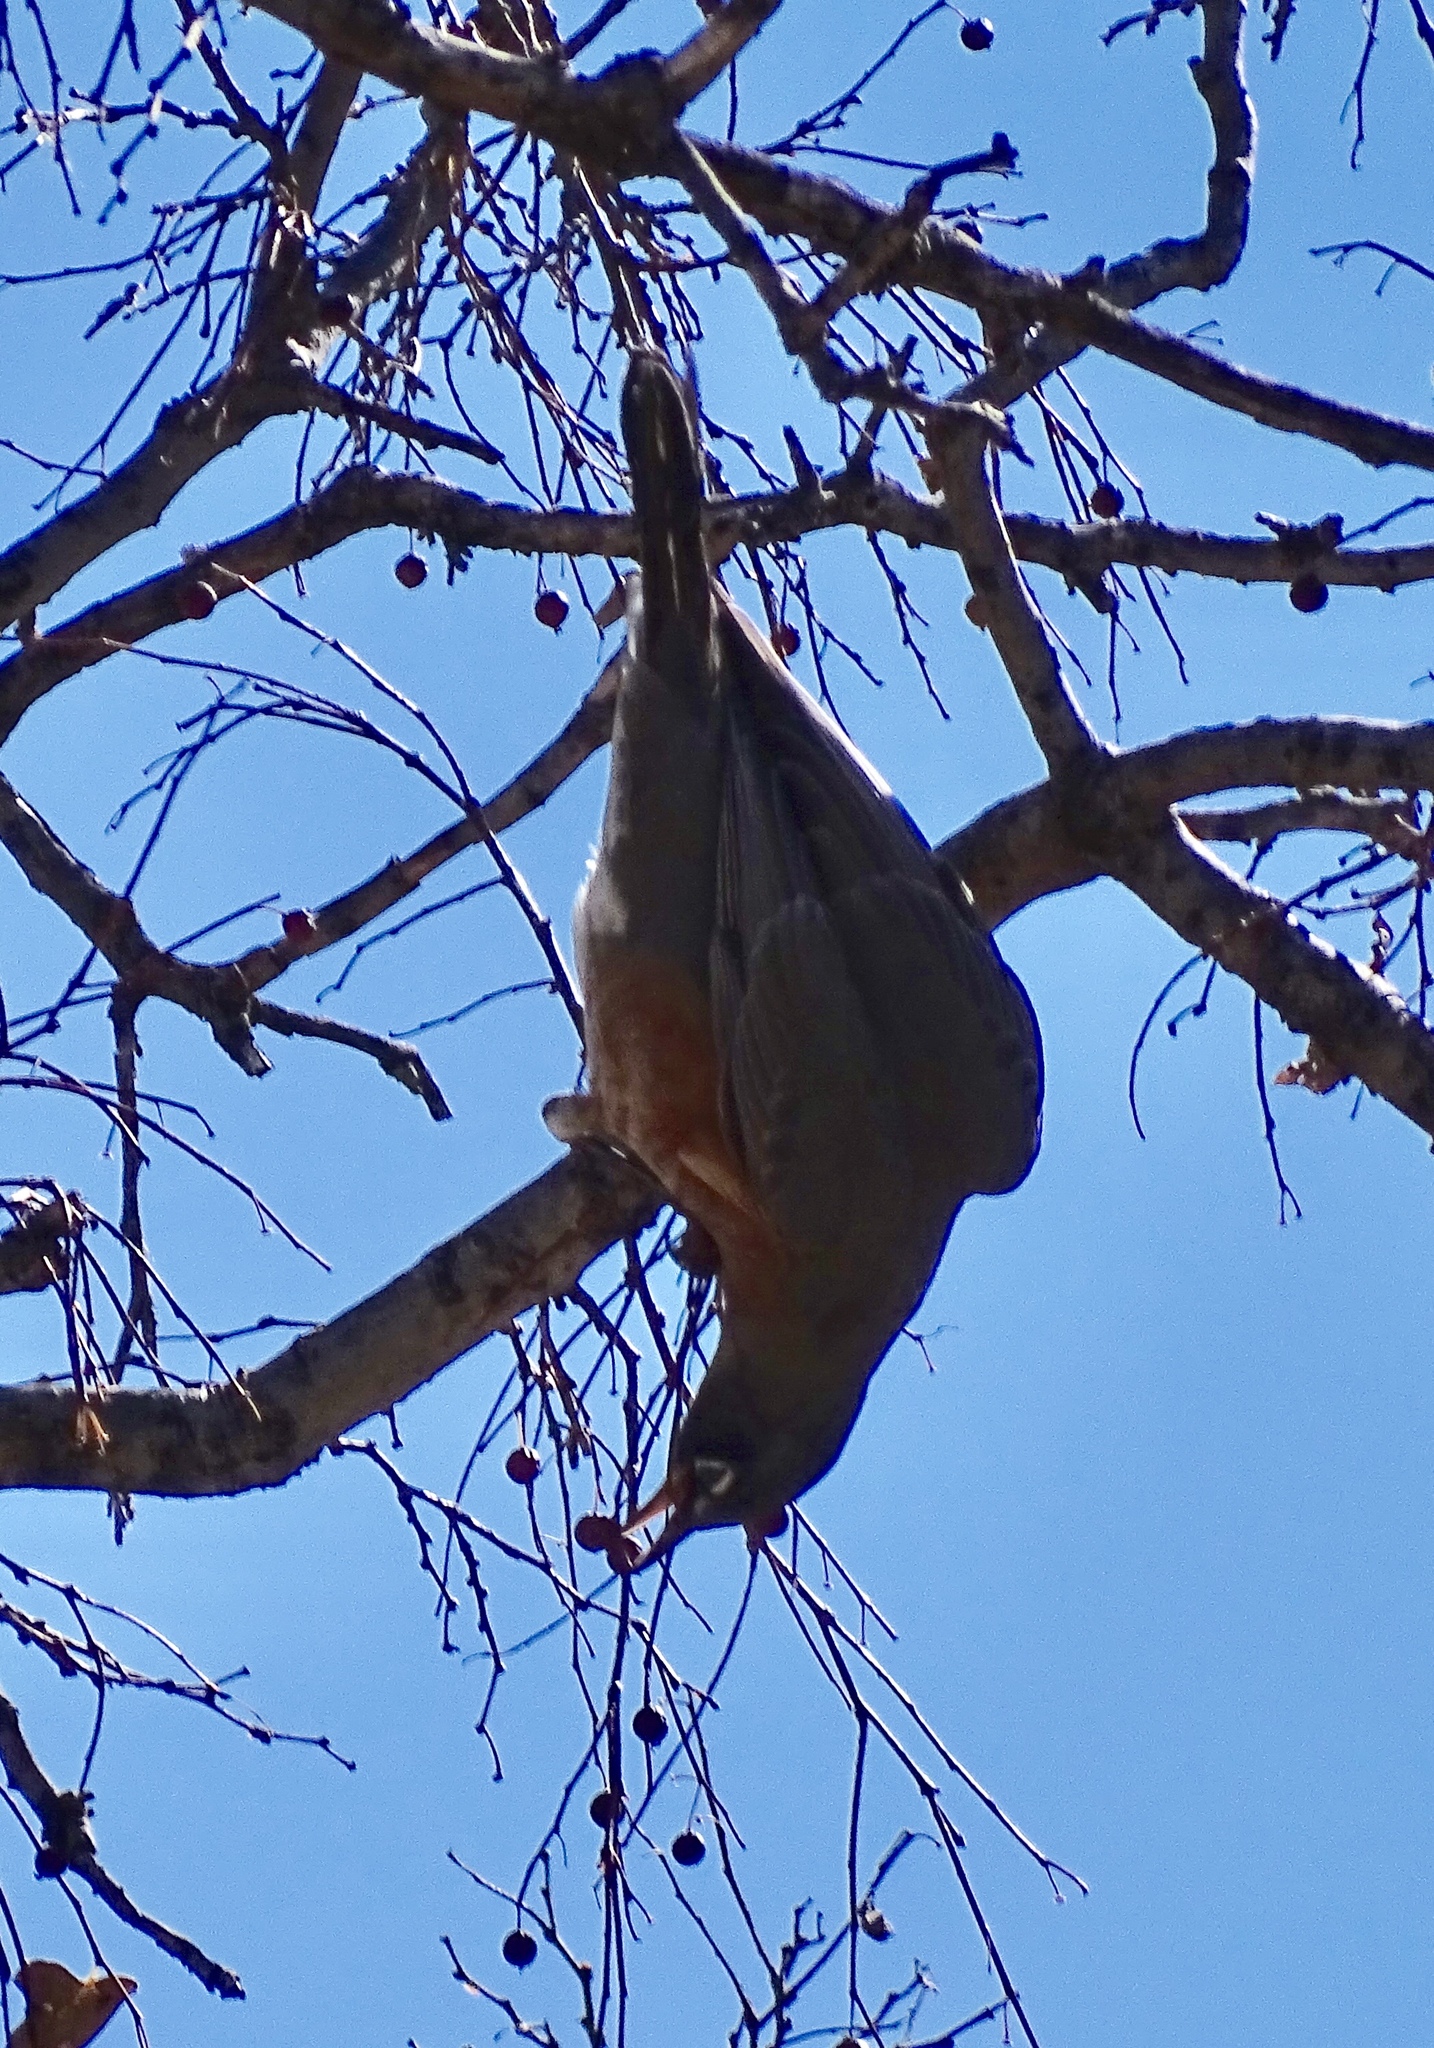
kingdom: Animalia
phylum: Chordata
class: Aves
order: Passeriformes
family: Turdidae
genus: Turdus
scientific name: Turdus migratorius
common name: American robin
